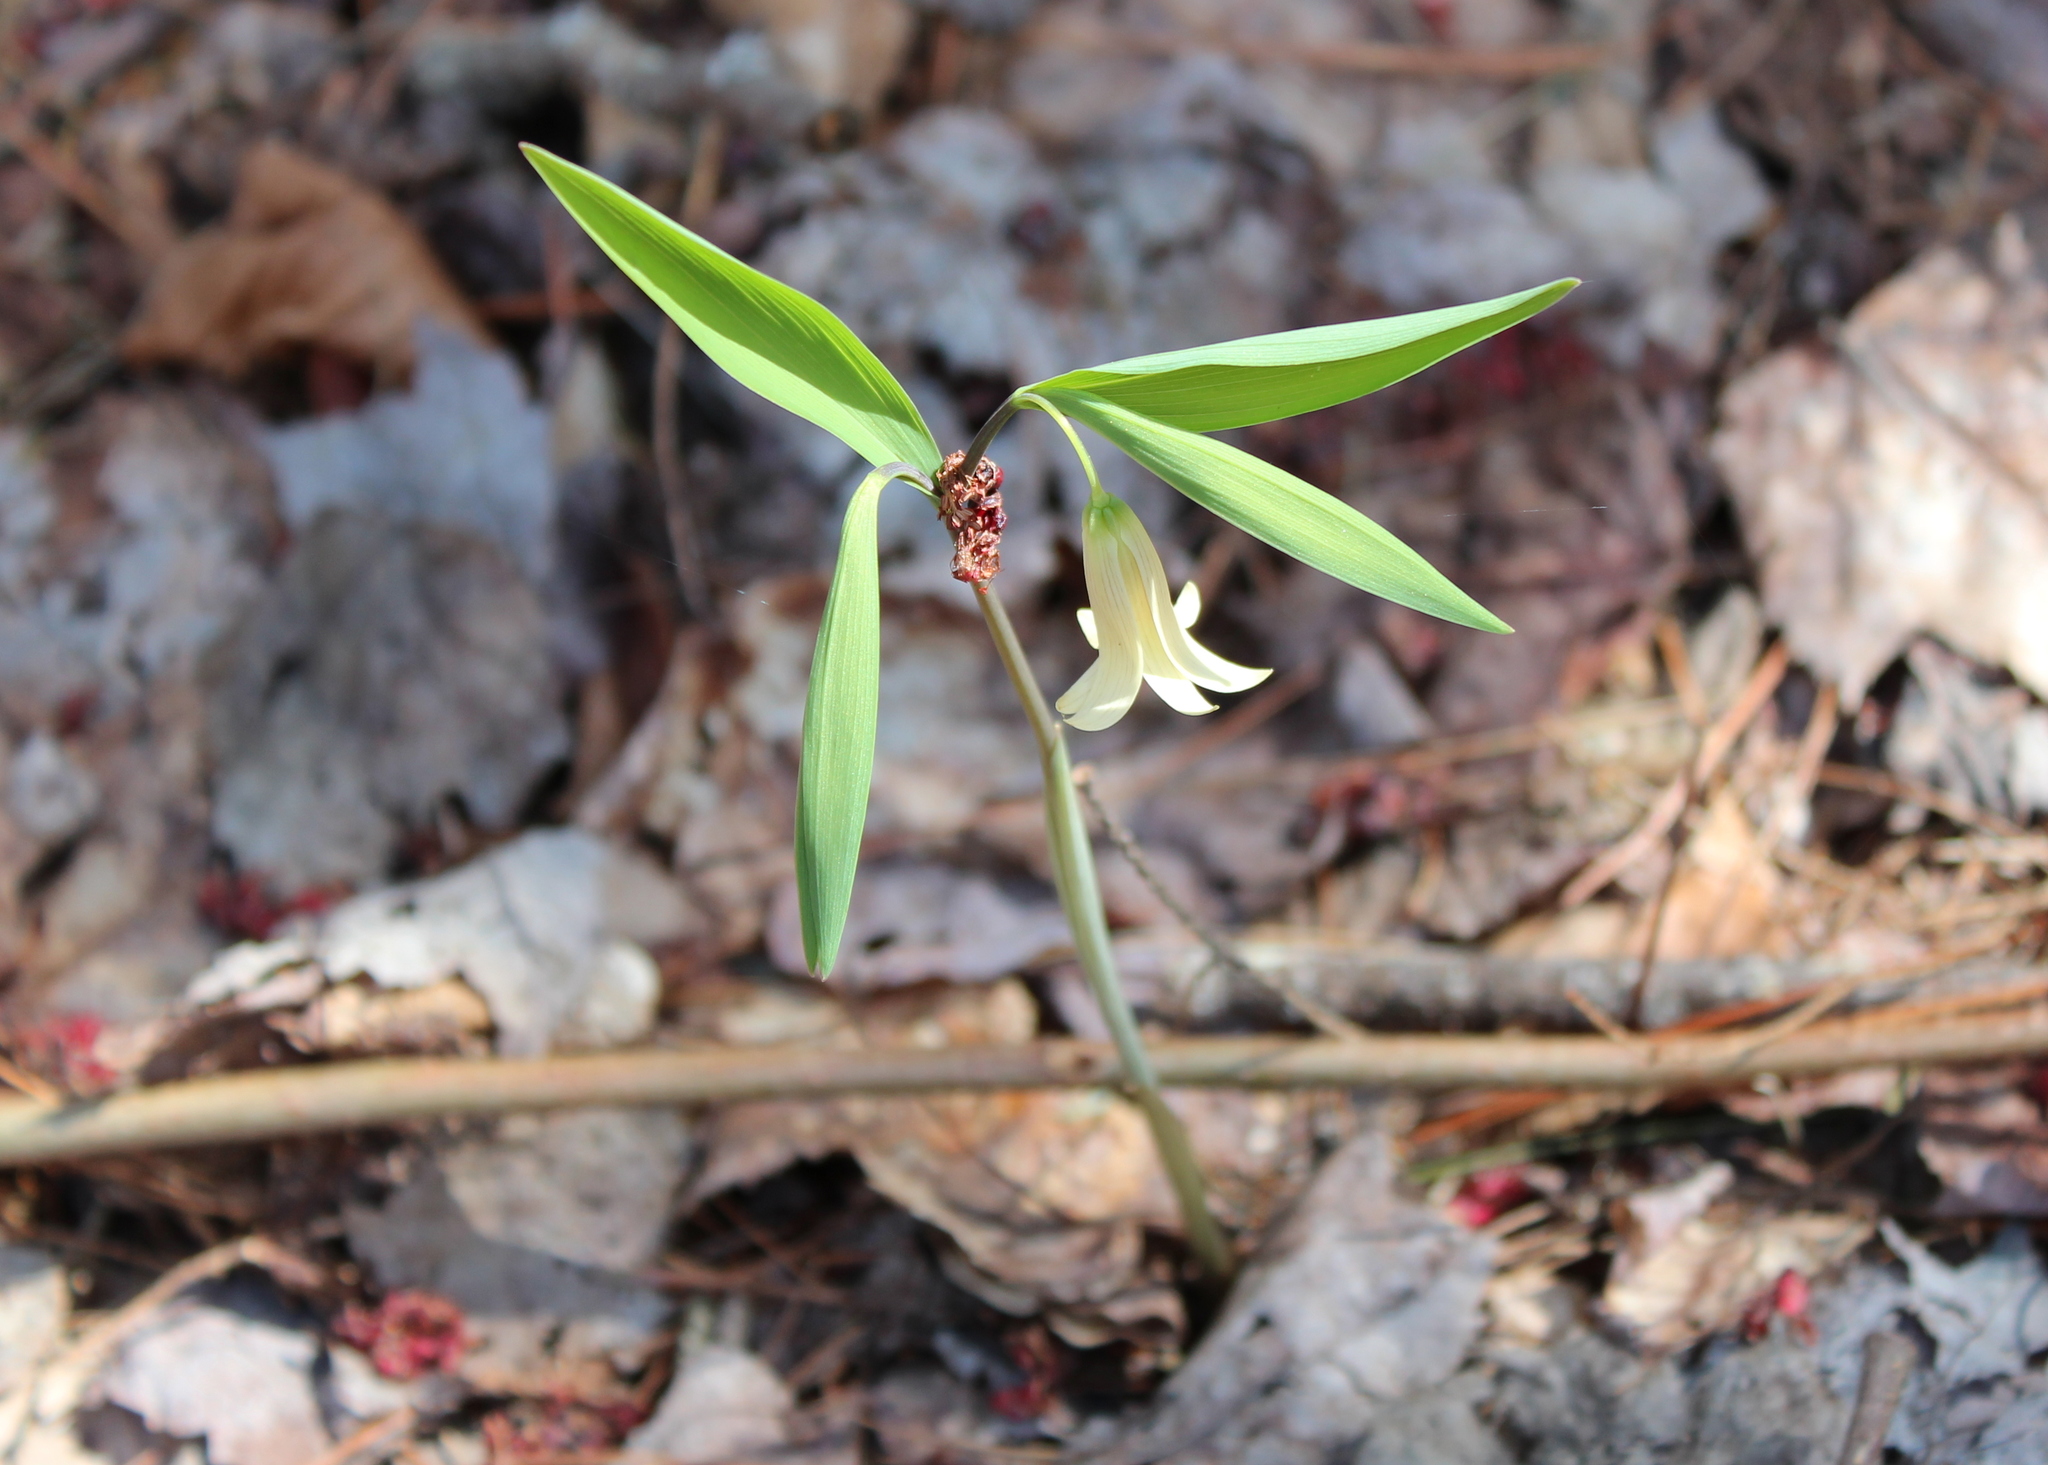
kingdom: Plantae
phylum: Tracheophyta
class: Liliopsida
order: Liliales
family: Colchicaceae
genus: Uvularia
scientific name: Uvularia sessilifolia
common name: Straw-lily
